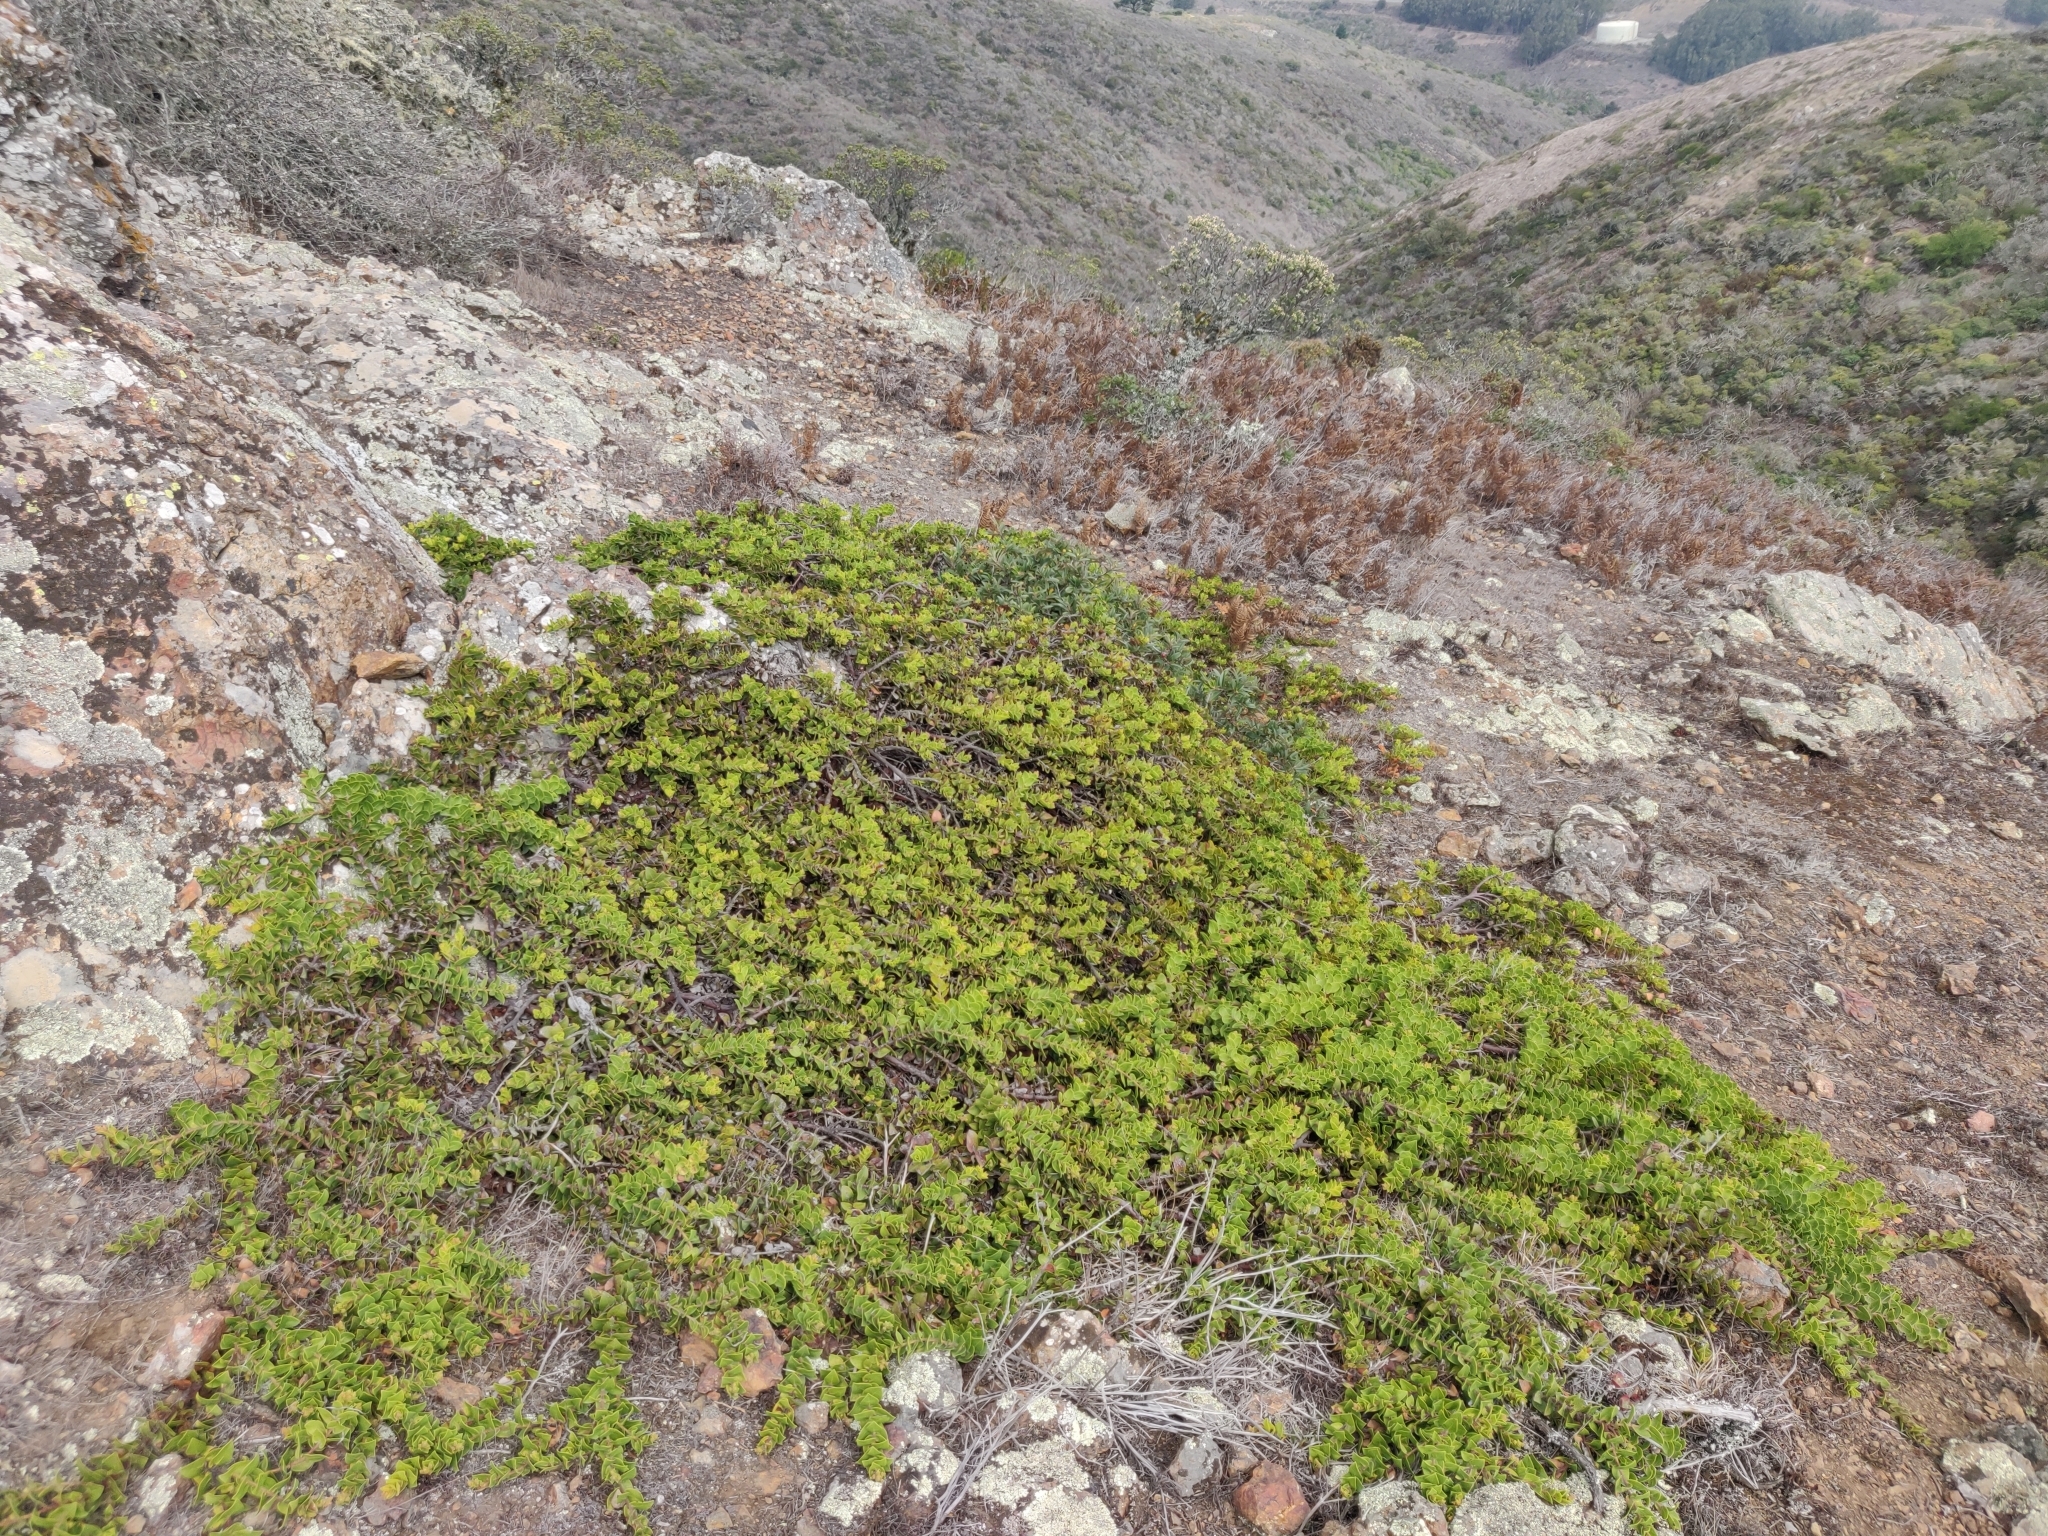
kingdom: Plantae
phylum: Tracheophyta
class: Magnoliopsida
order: Ericales
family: Ericaceae
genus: Arctostaphylos
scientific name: Arctostaphylos imbricata
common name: San bruno mountain manzanita
